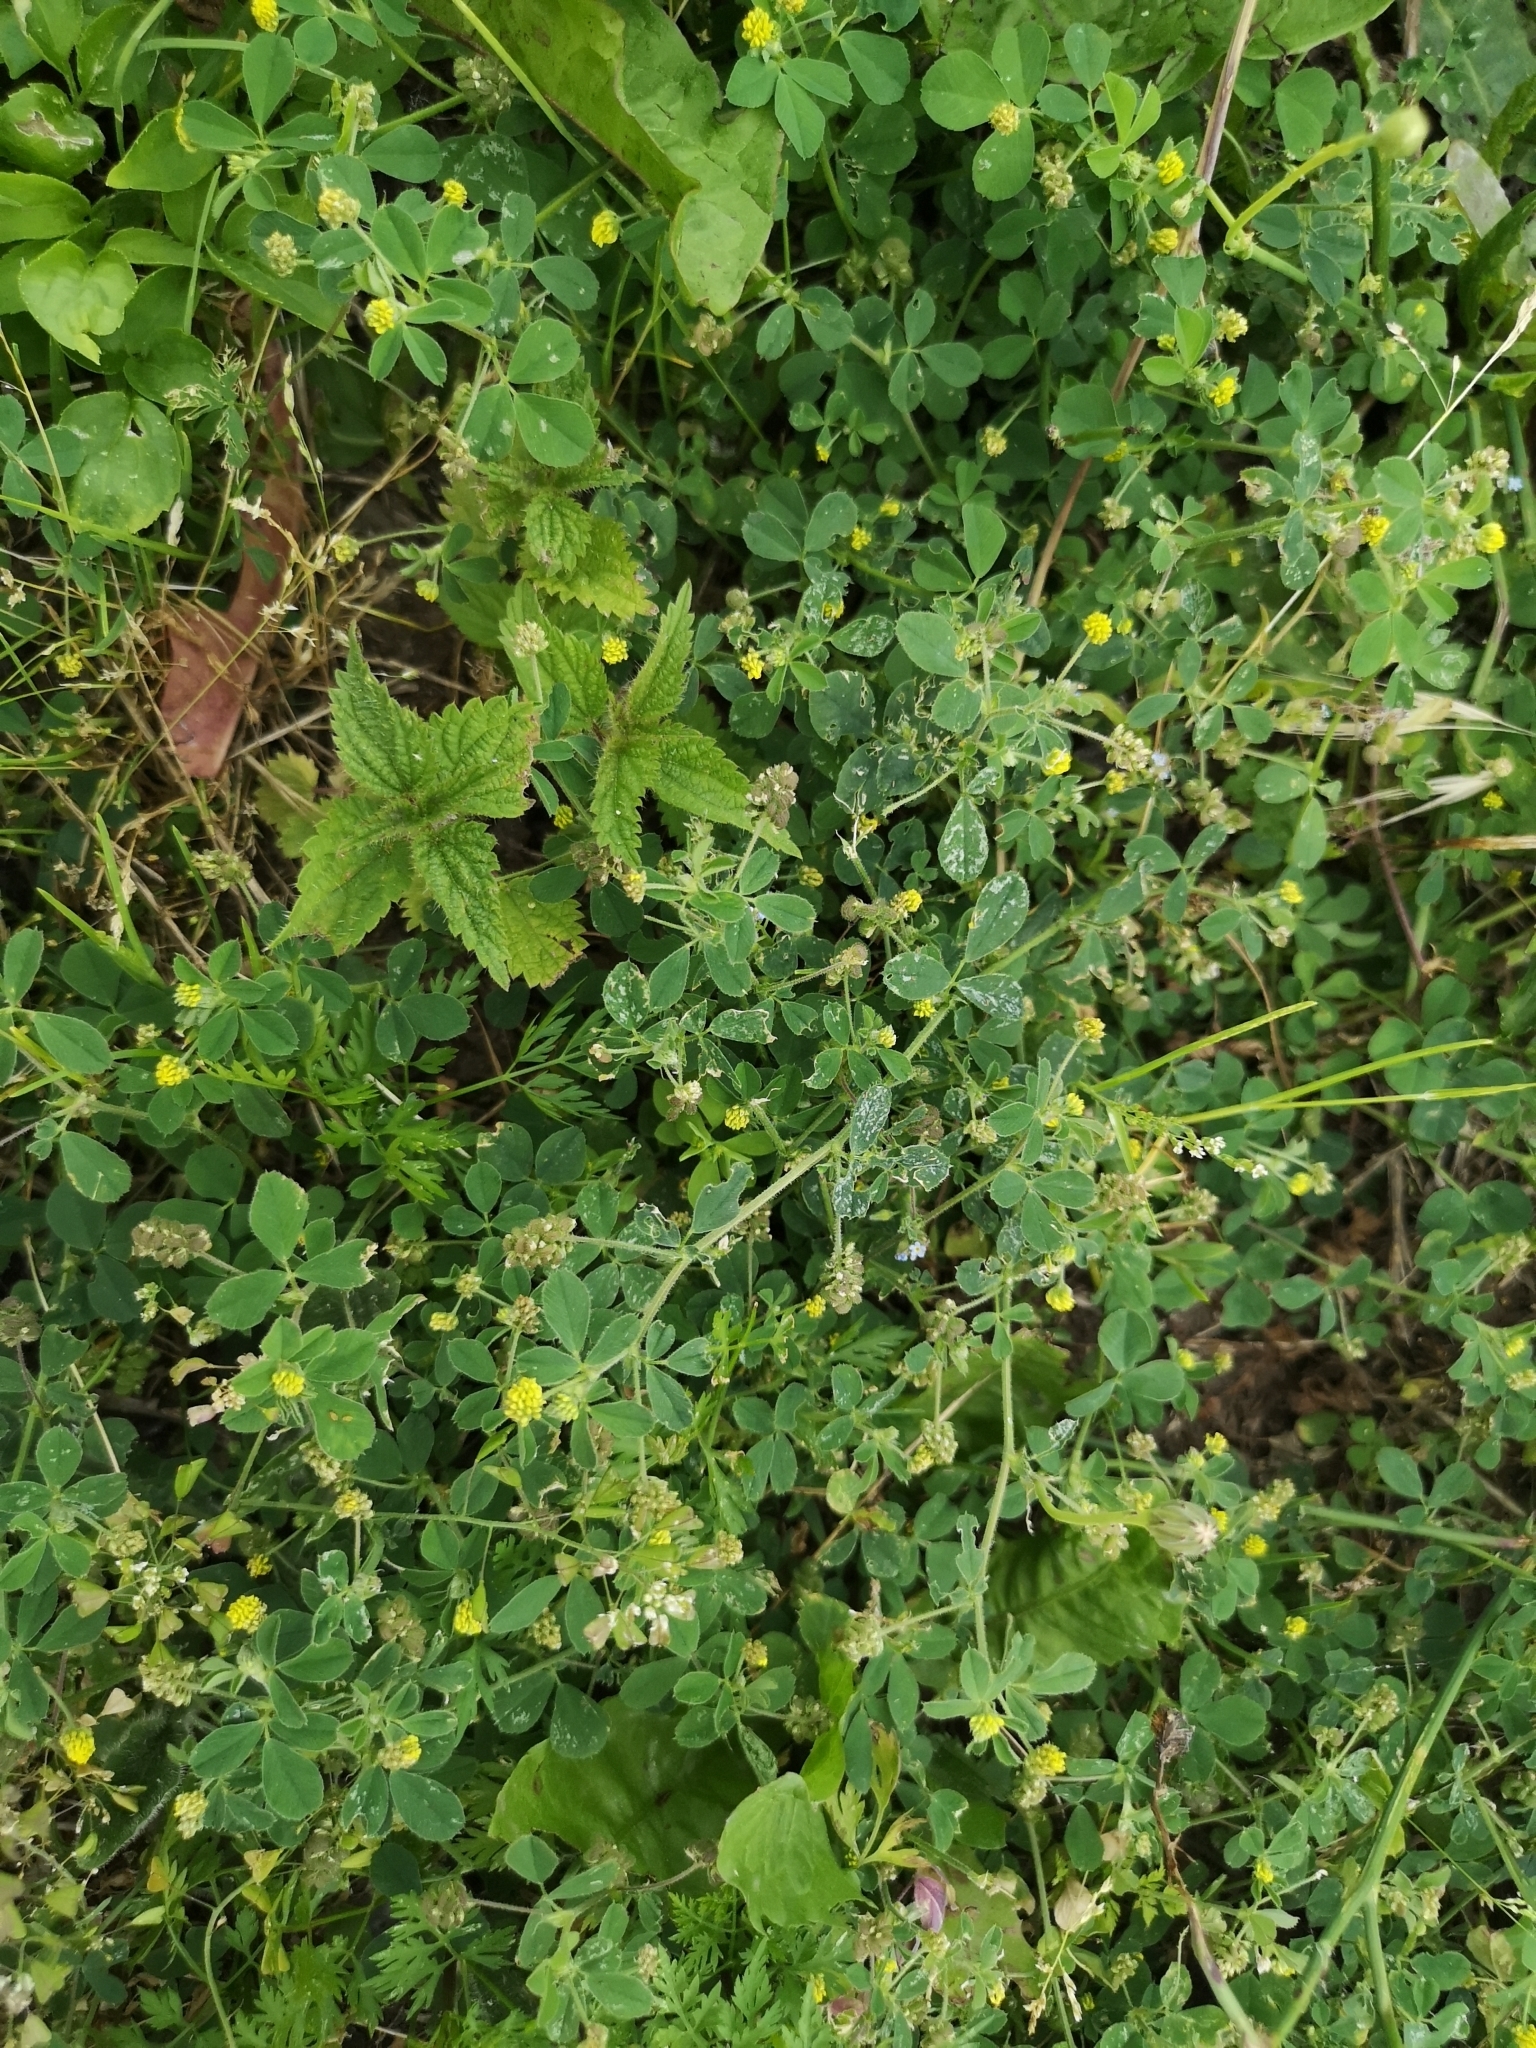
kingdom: Plantae
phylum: Tracheophyta
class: Magnoliopsida
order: Fabales
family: Fabaceae
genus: Medicago
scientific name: Medicago lupulina
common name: Black medick
